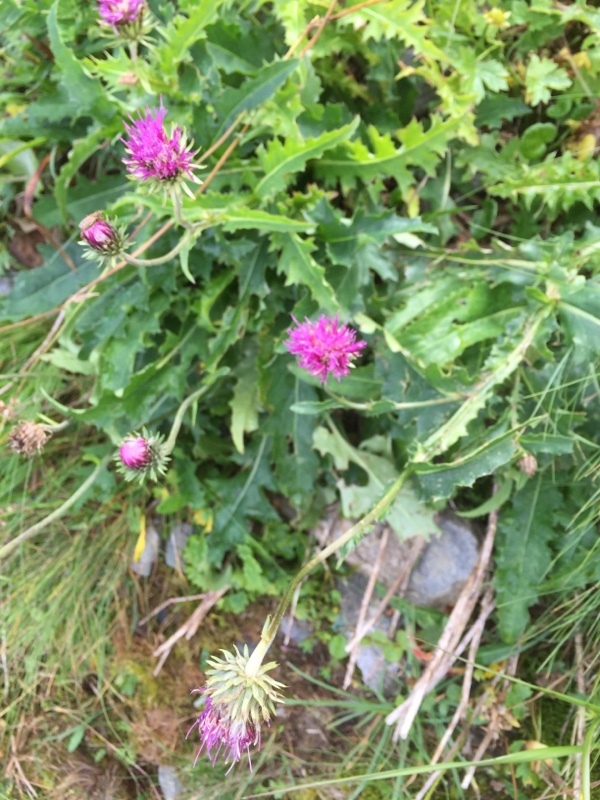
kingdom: Plantae
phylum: Tracheophyta
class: Magnoliopsida
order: Asterales
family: Asteraceae
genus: Carduus
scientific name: Carduus defloratus
